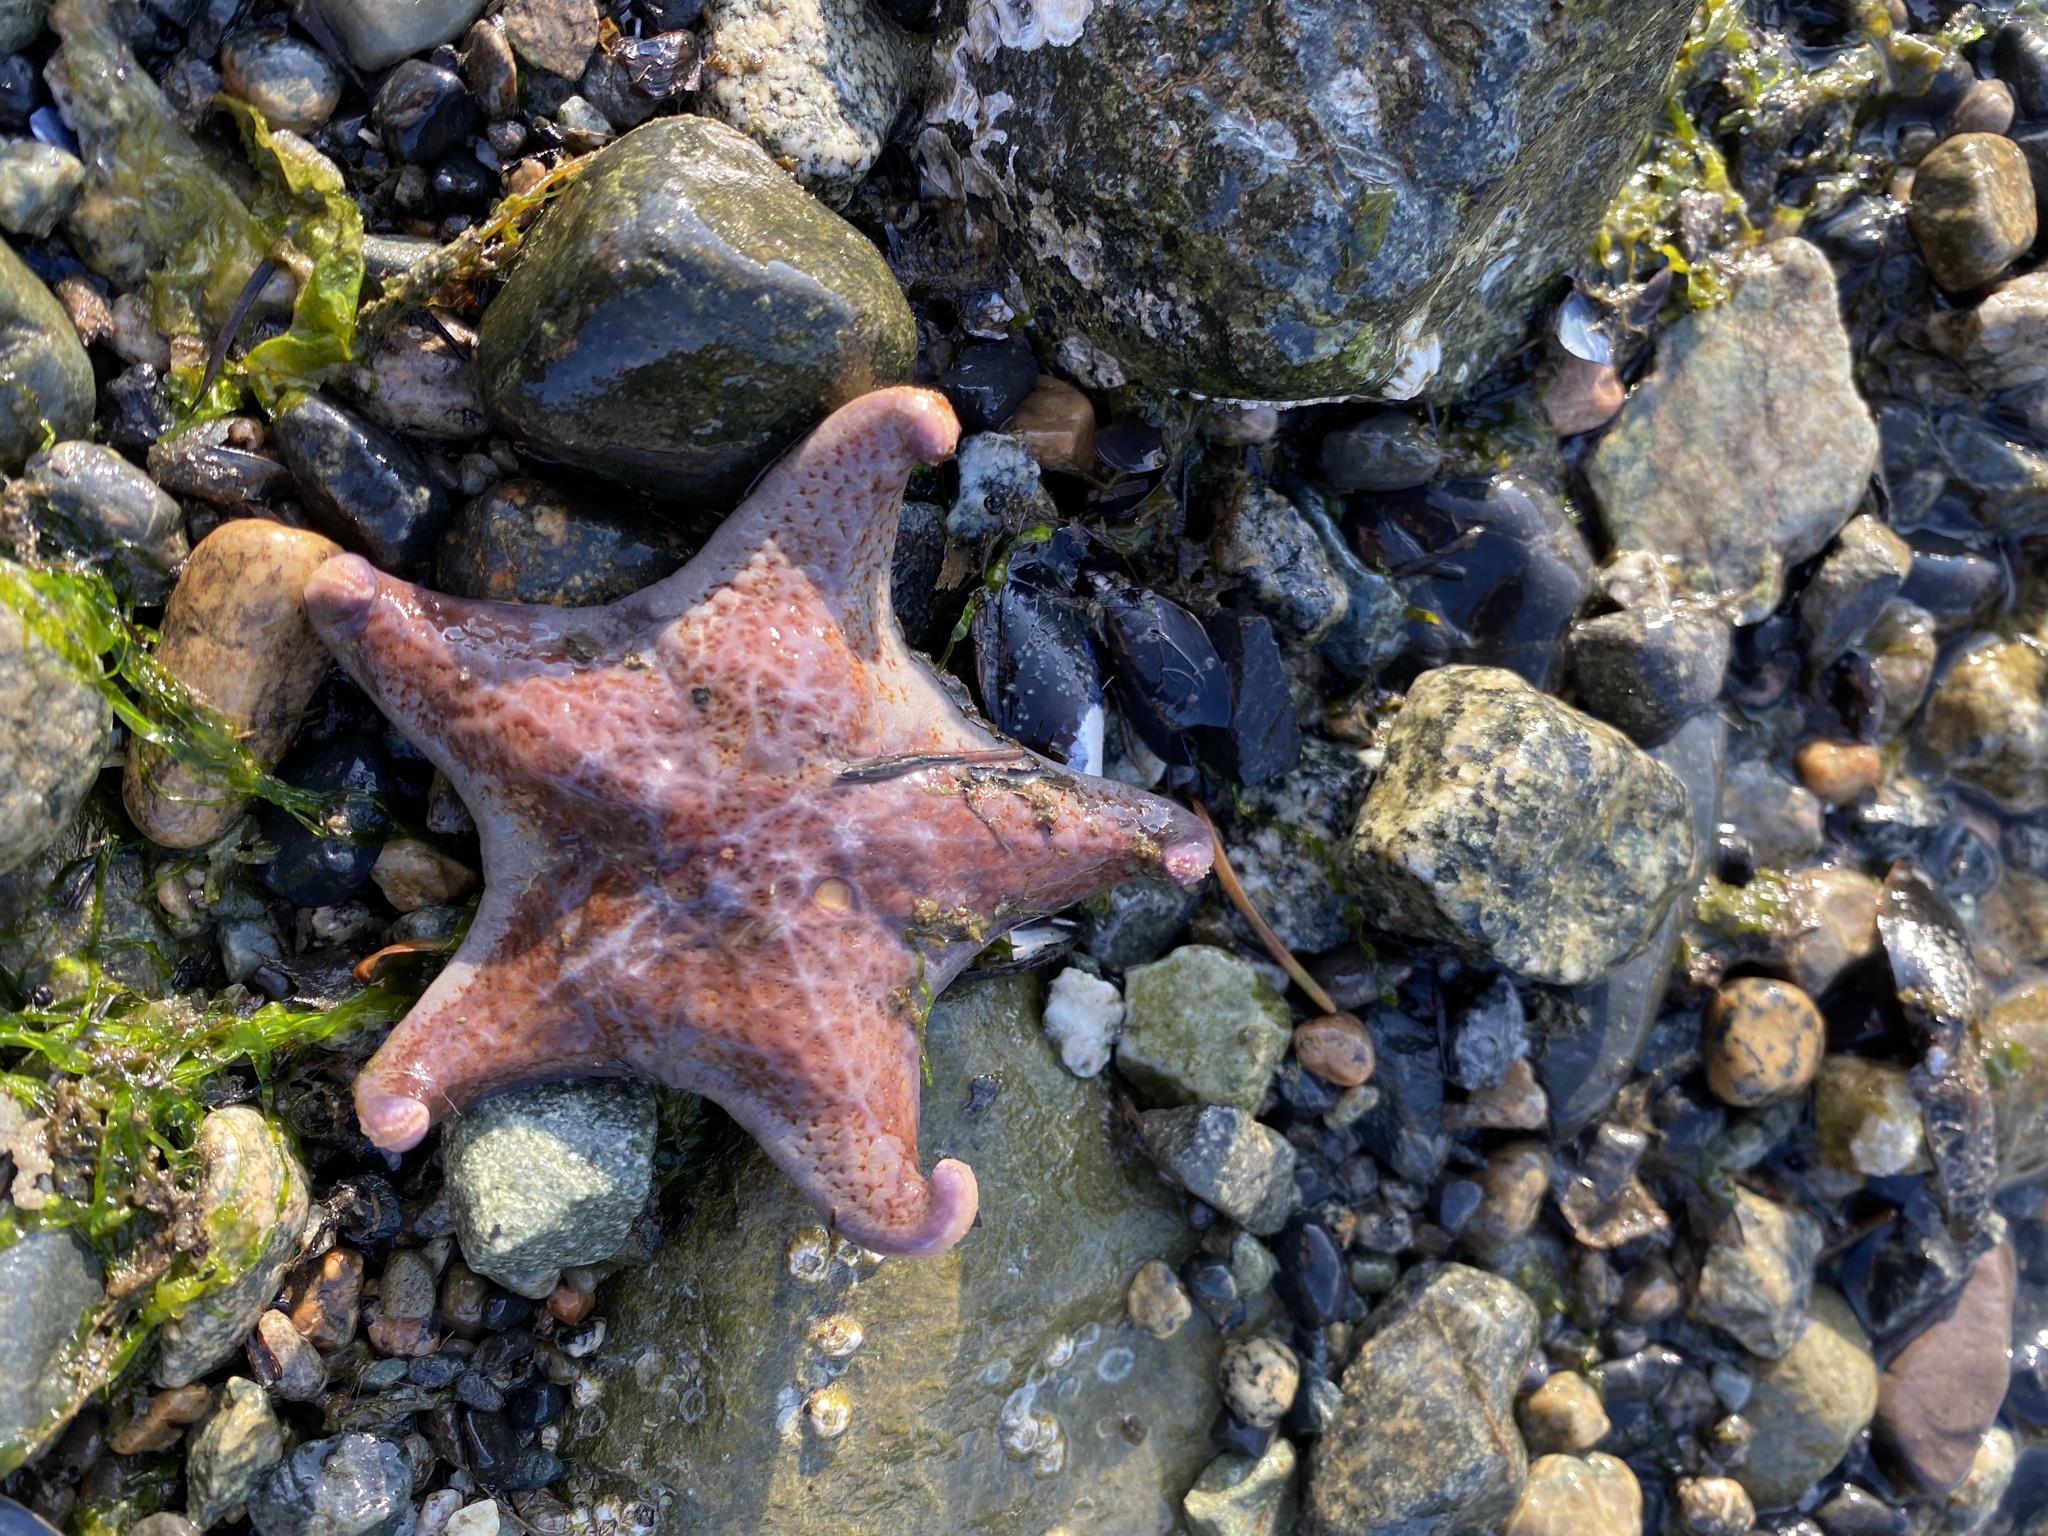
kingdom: Animalia
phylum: Echinodermata
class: Asteroidea
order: Valvatida
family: Asteropseidae
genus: Dermasterias
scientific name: Dermasterias imbricata
